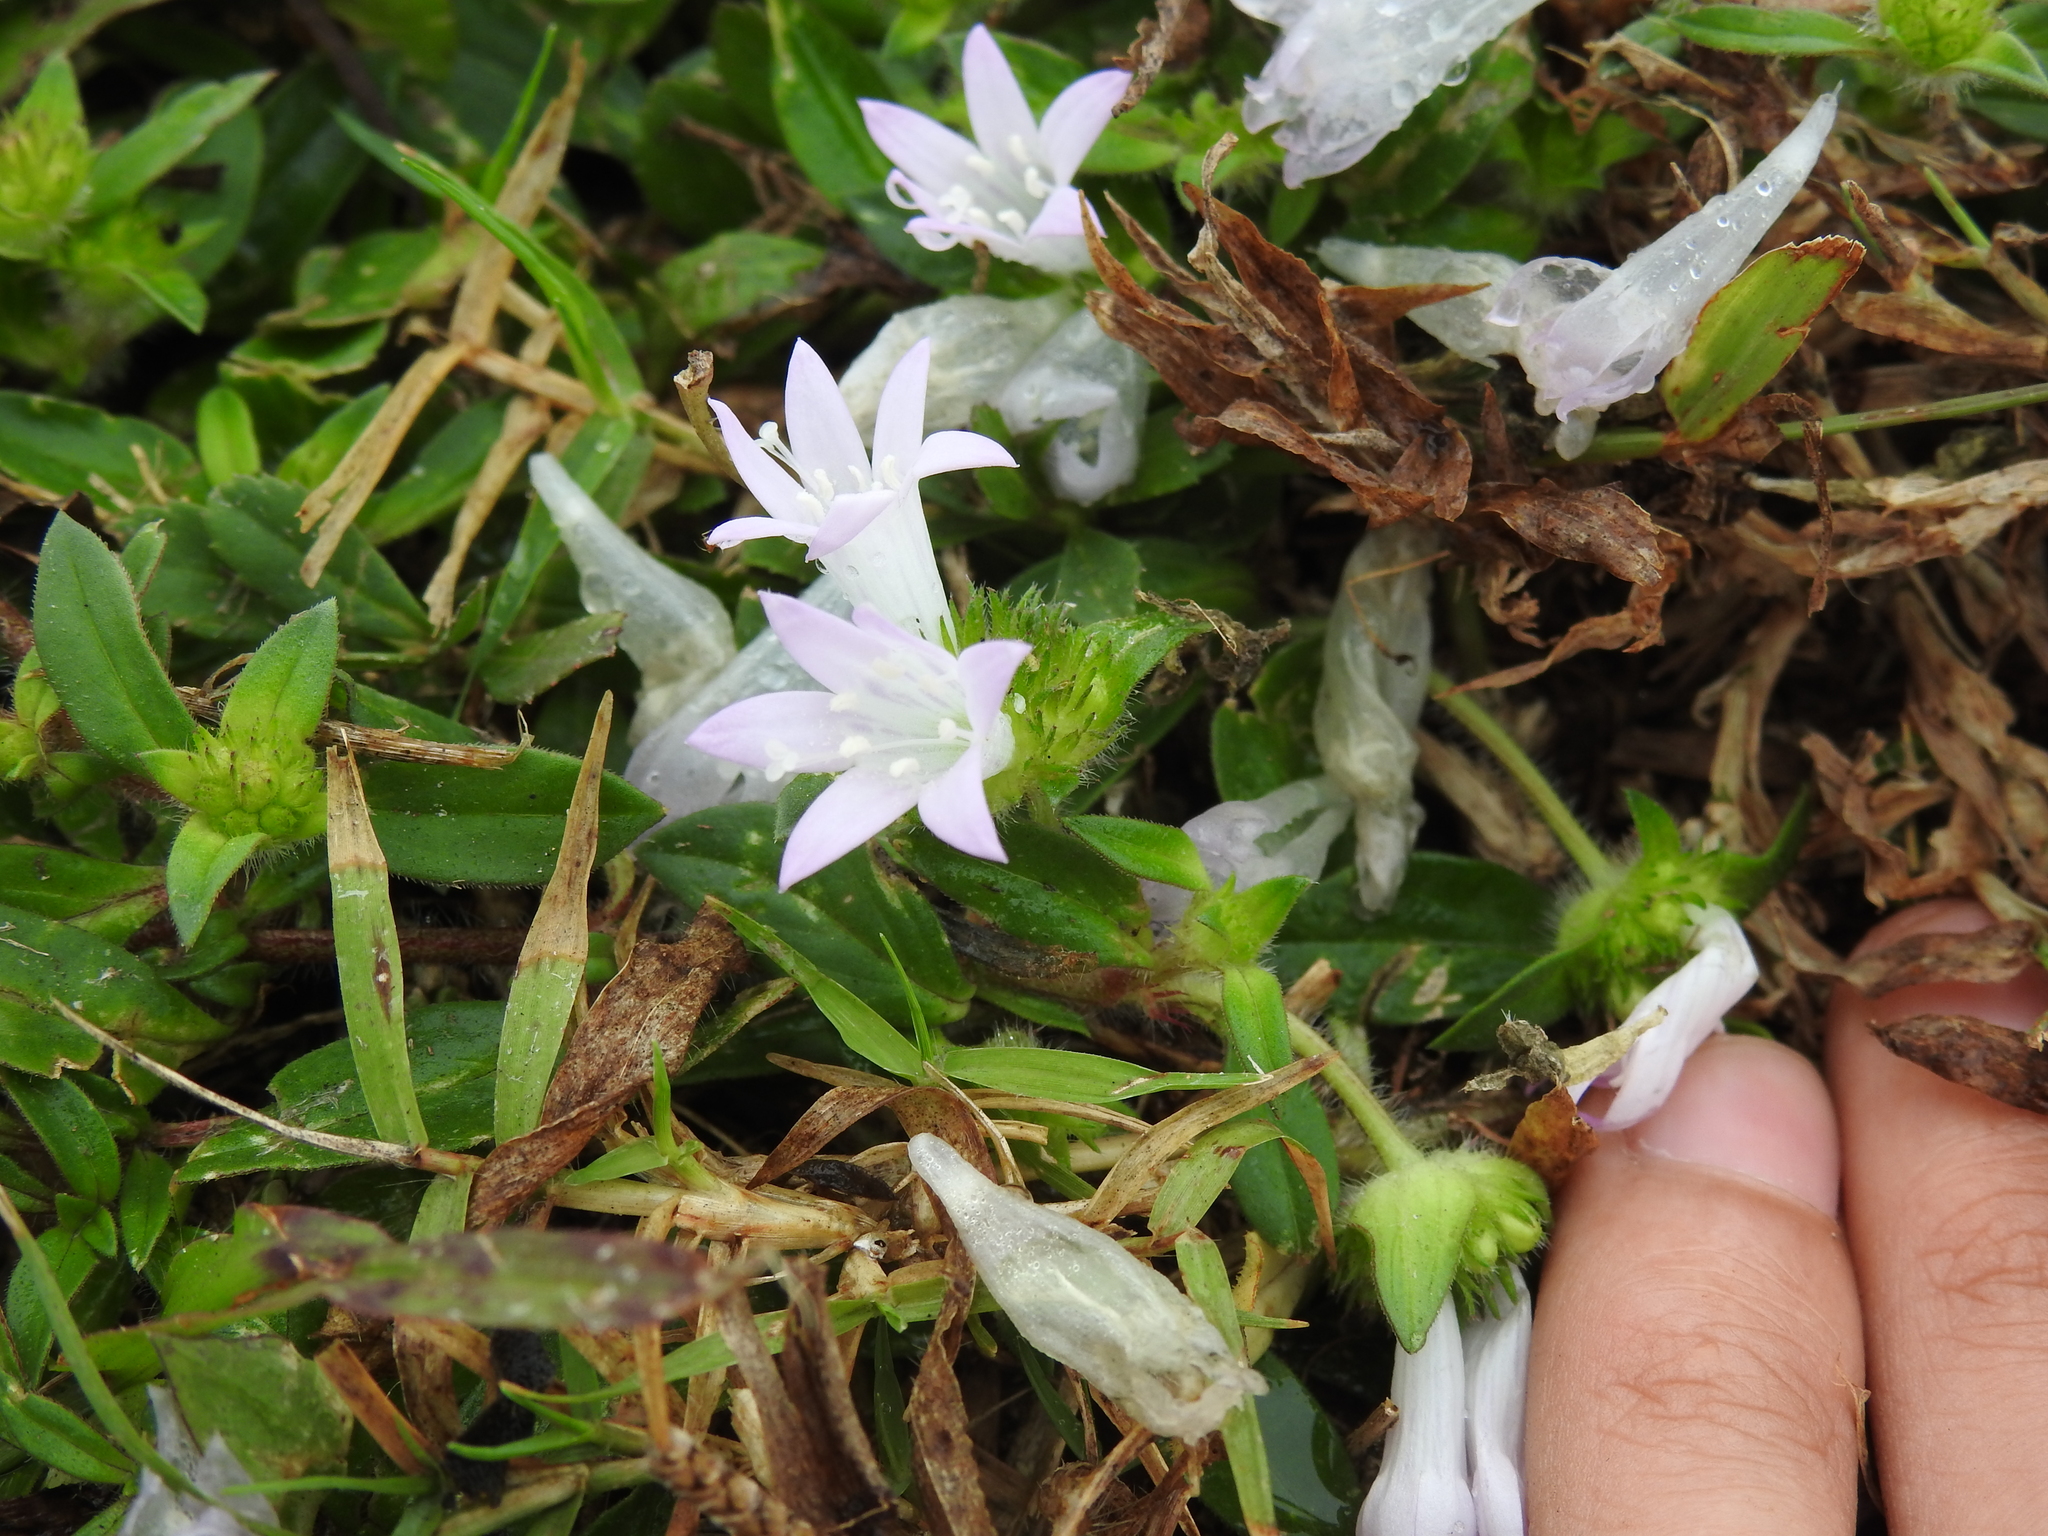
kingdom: Plantae
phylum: Tracheophyta
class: Magnoliopsida
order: Gentianales
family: Rubiaceae
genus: Richardia
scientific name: Richardia grandiflora
